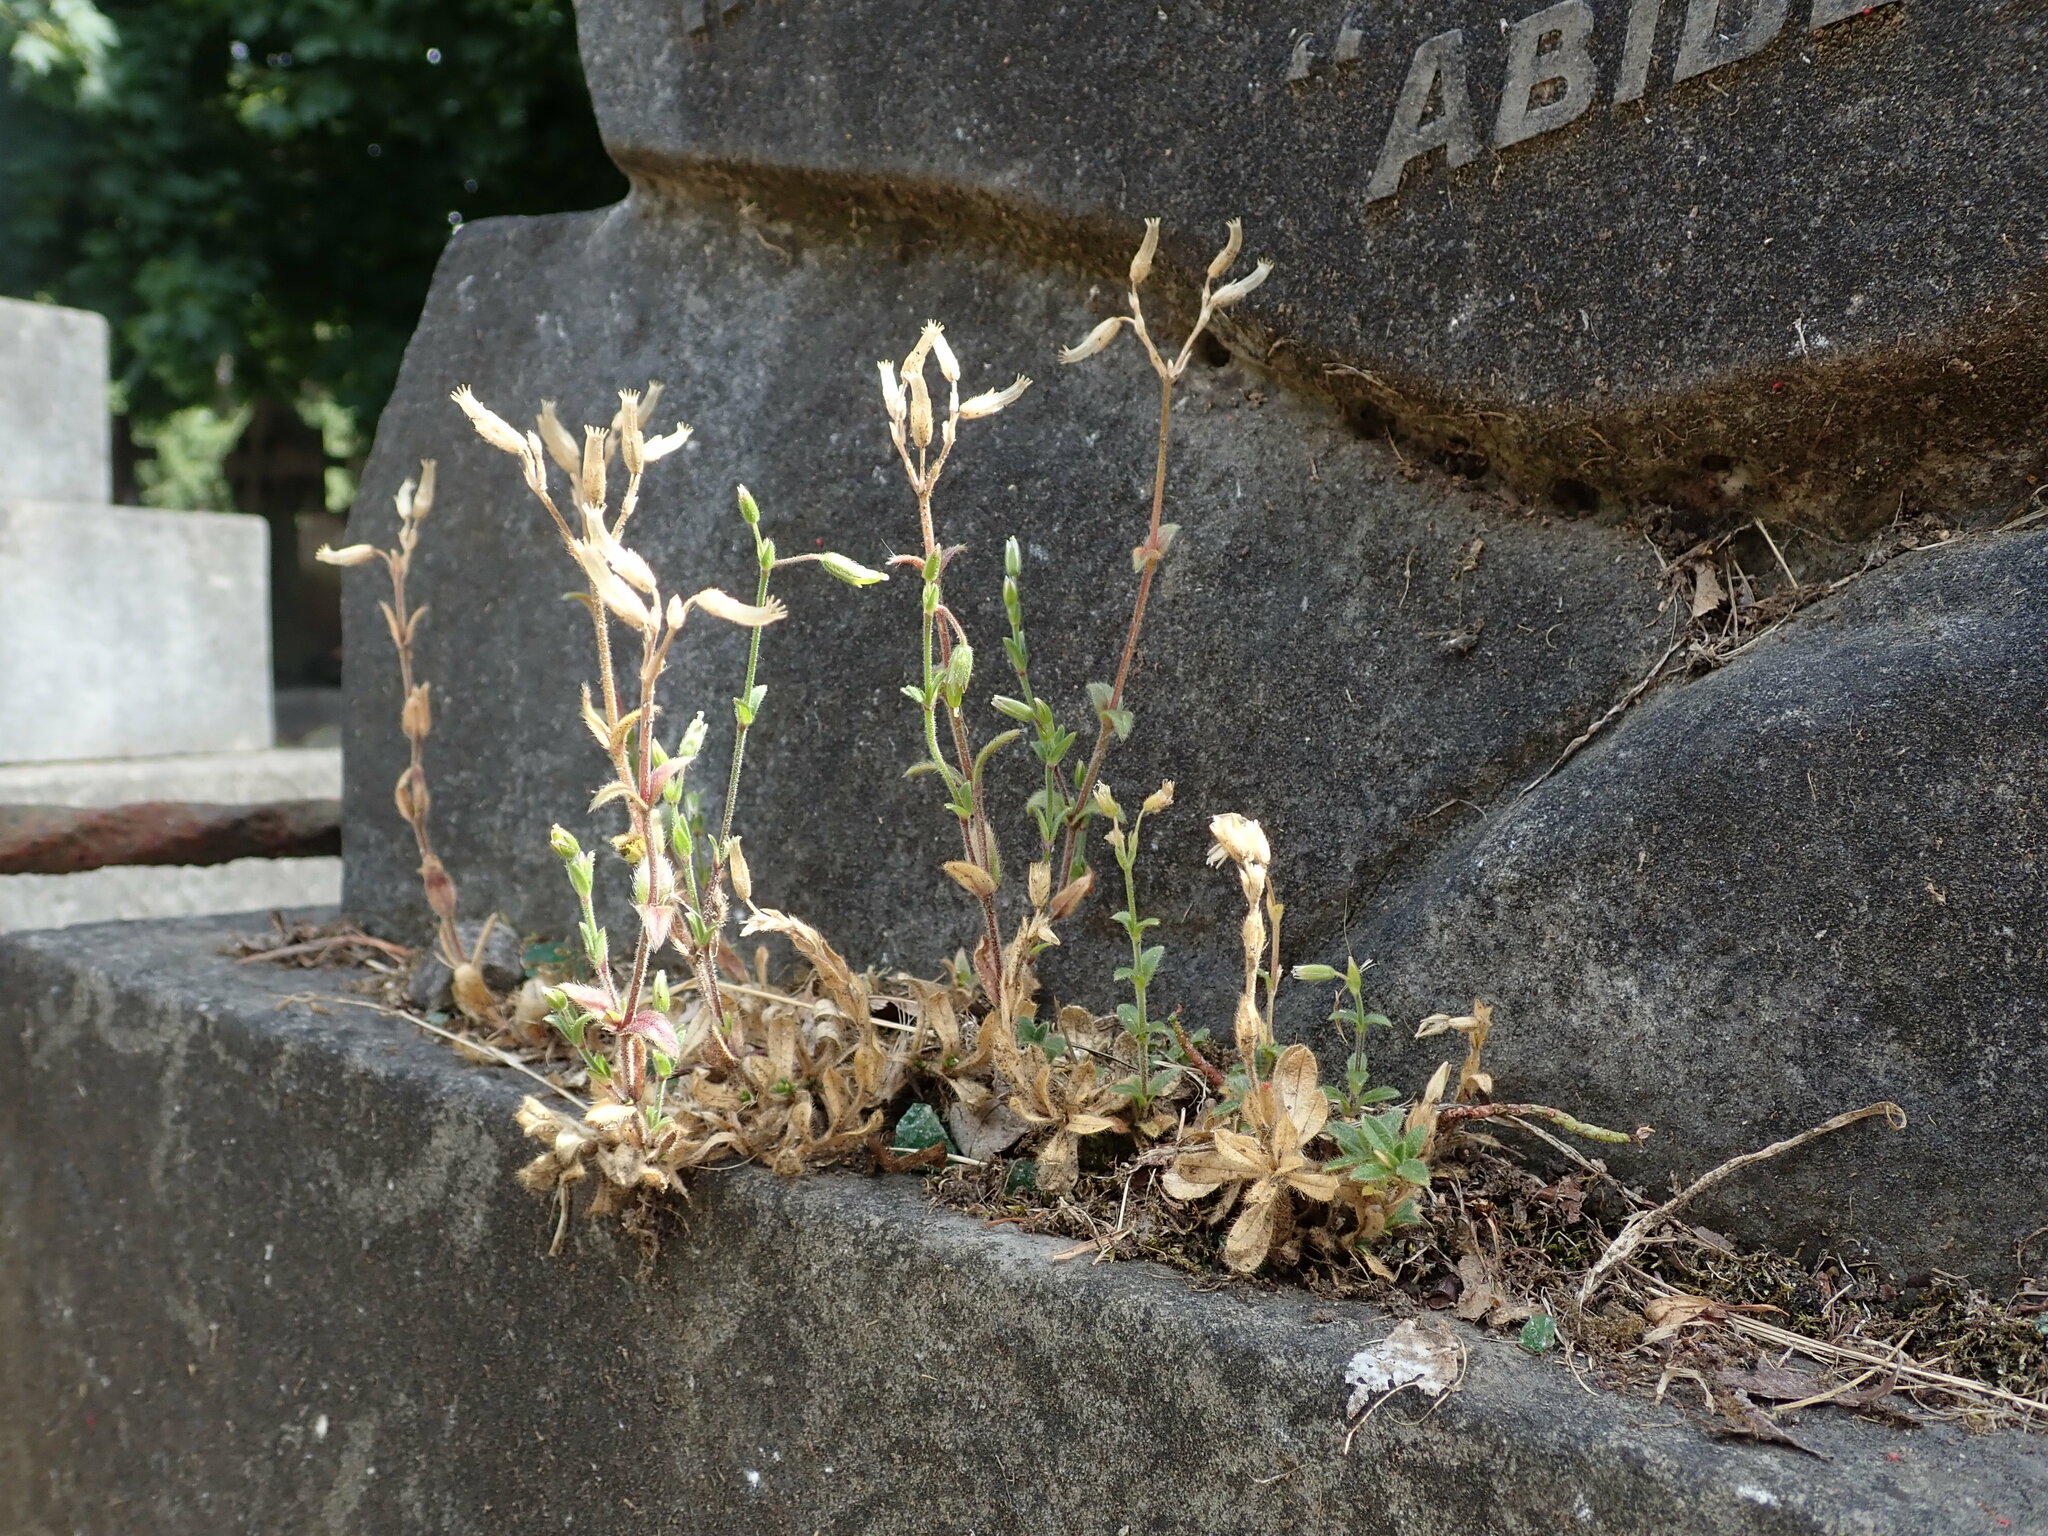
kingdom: Plantae
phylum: Tracheophyta
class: Magnoliopsida
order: Caryophyllales
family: Caryophyllaceae
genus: Cerastium
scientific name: Cerastium fontanum
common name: Common mouse-ear
